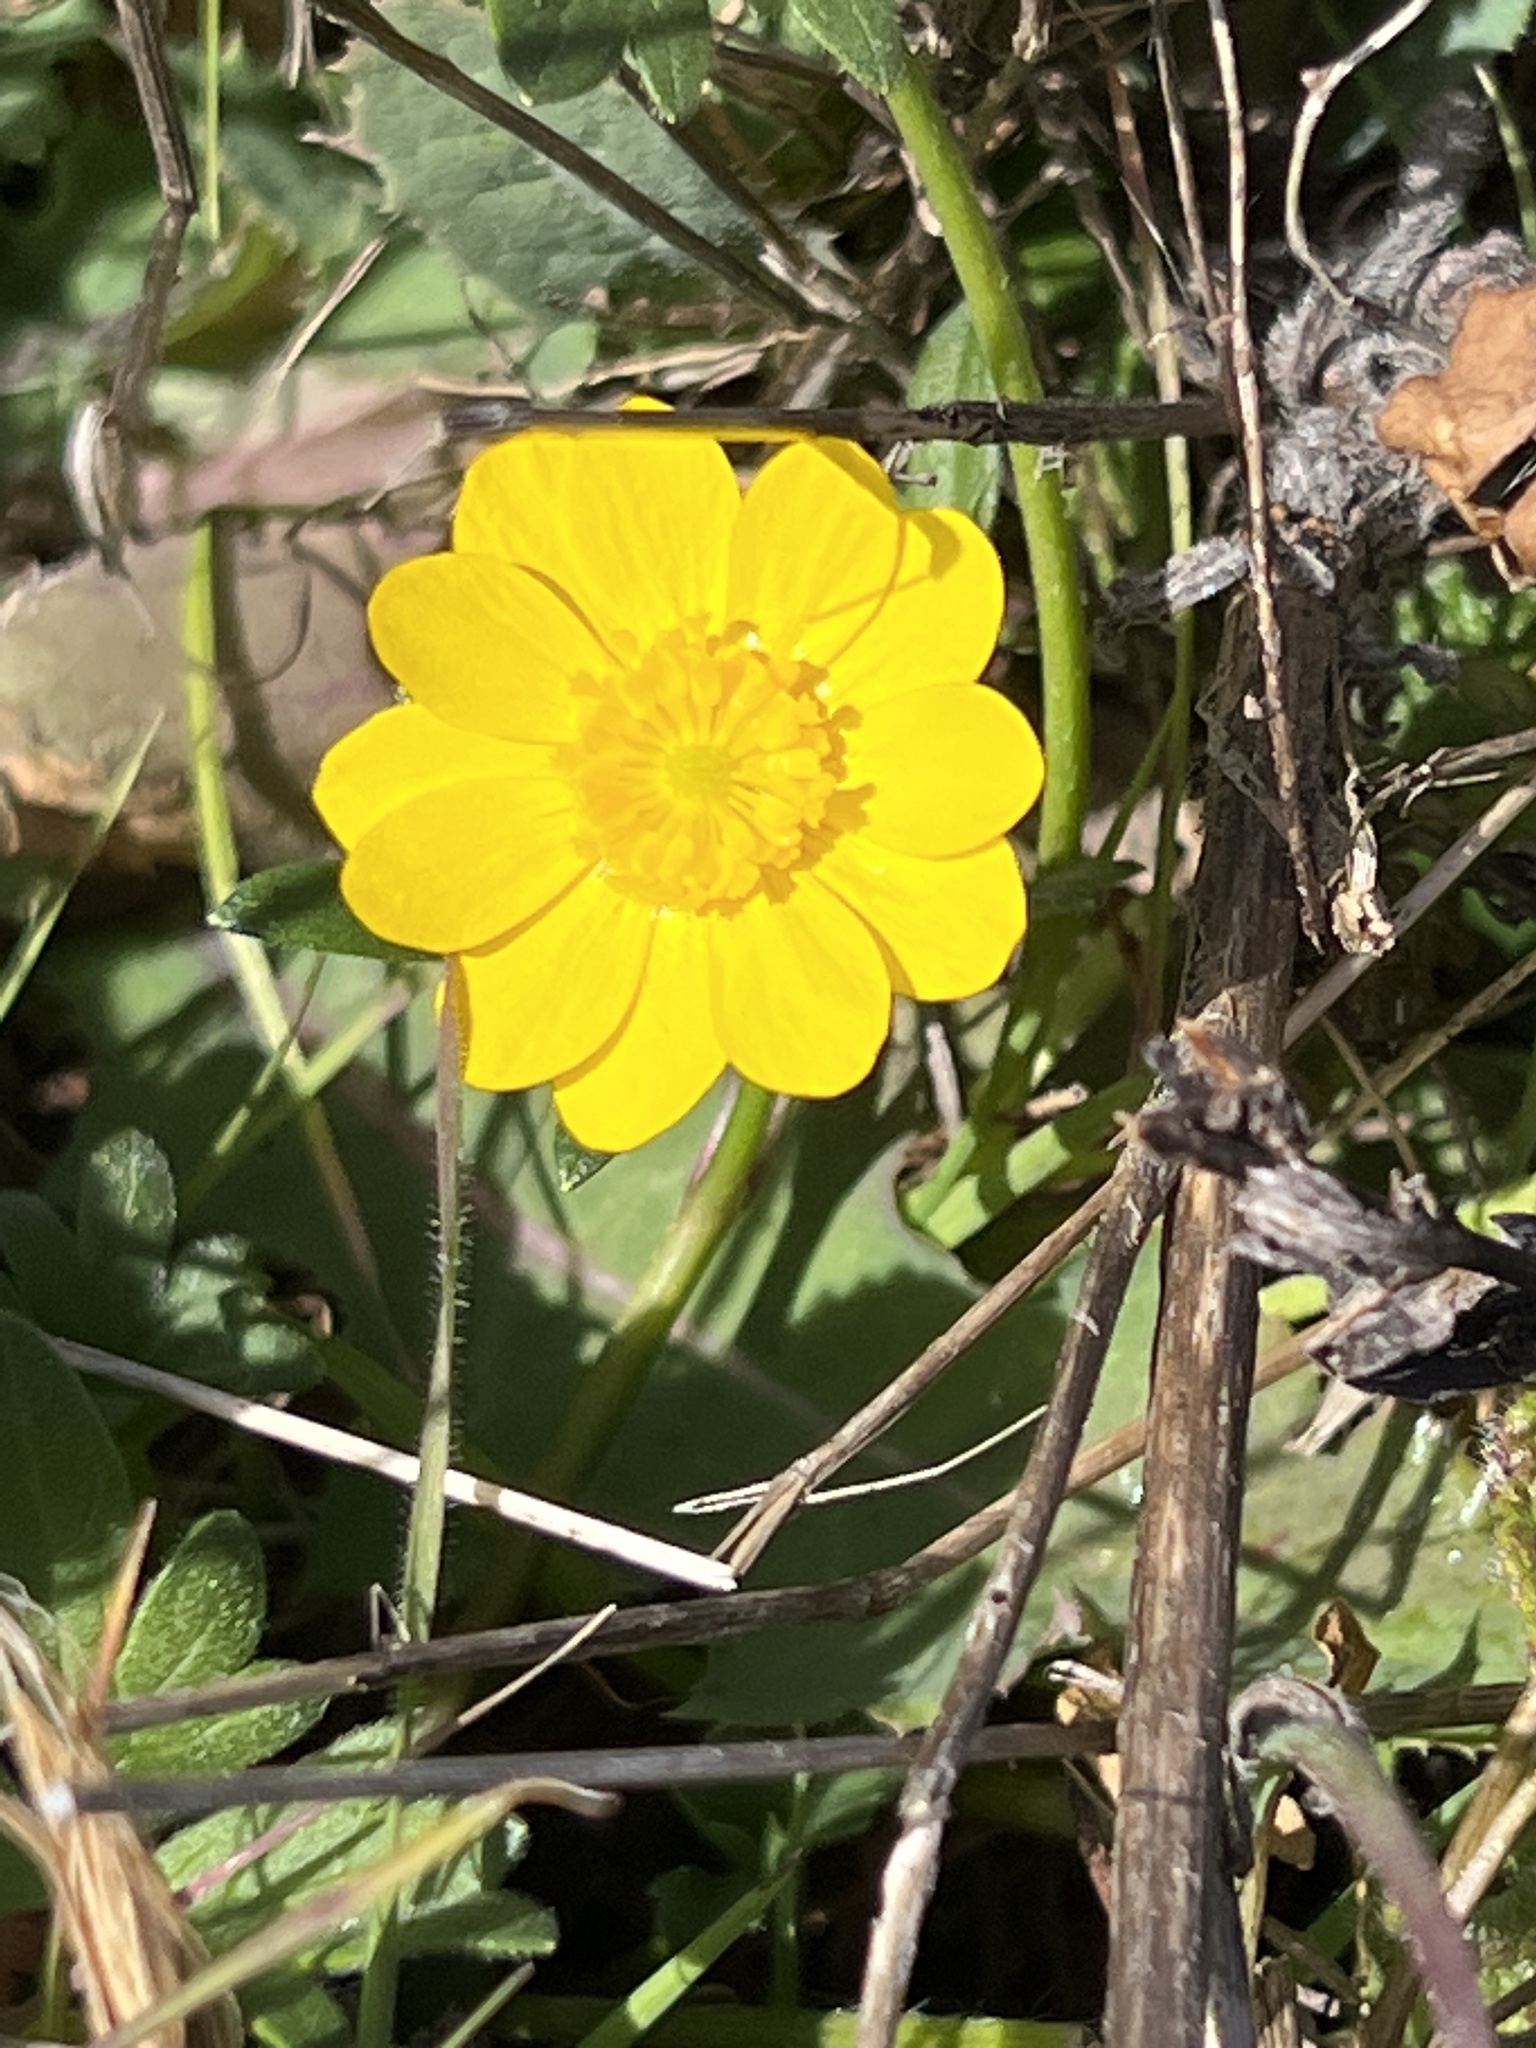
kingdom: Plantae
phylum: Tracheophyta
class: Magnoliopsida
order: Ranunculales
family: Ranunculaceae
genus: Ranunculus
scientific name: Ranunculus californicus
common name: California buttercup
